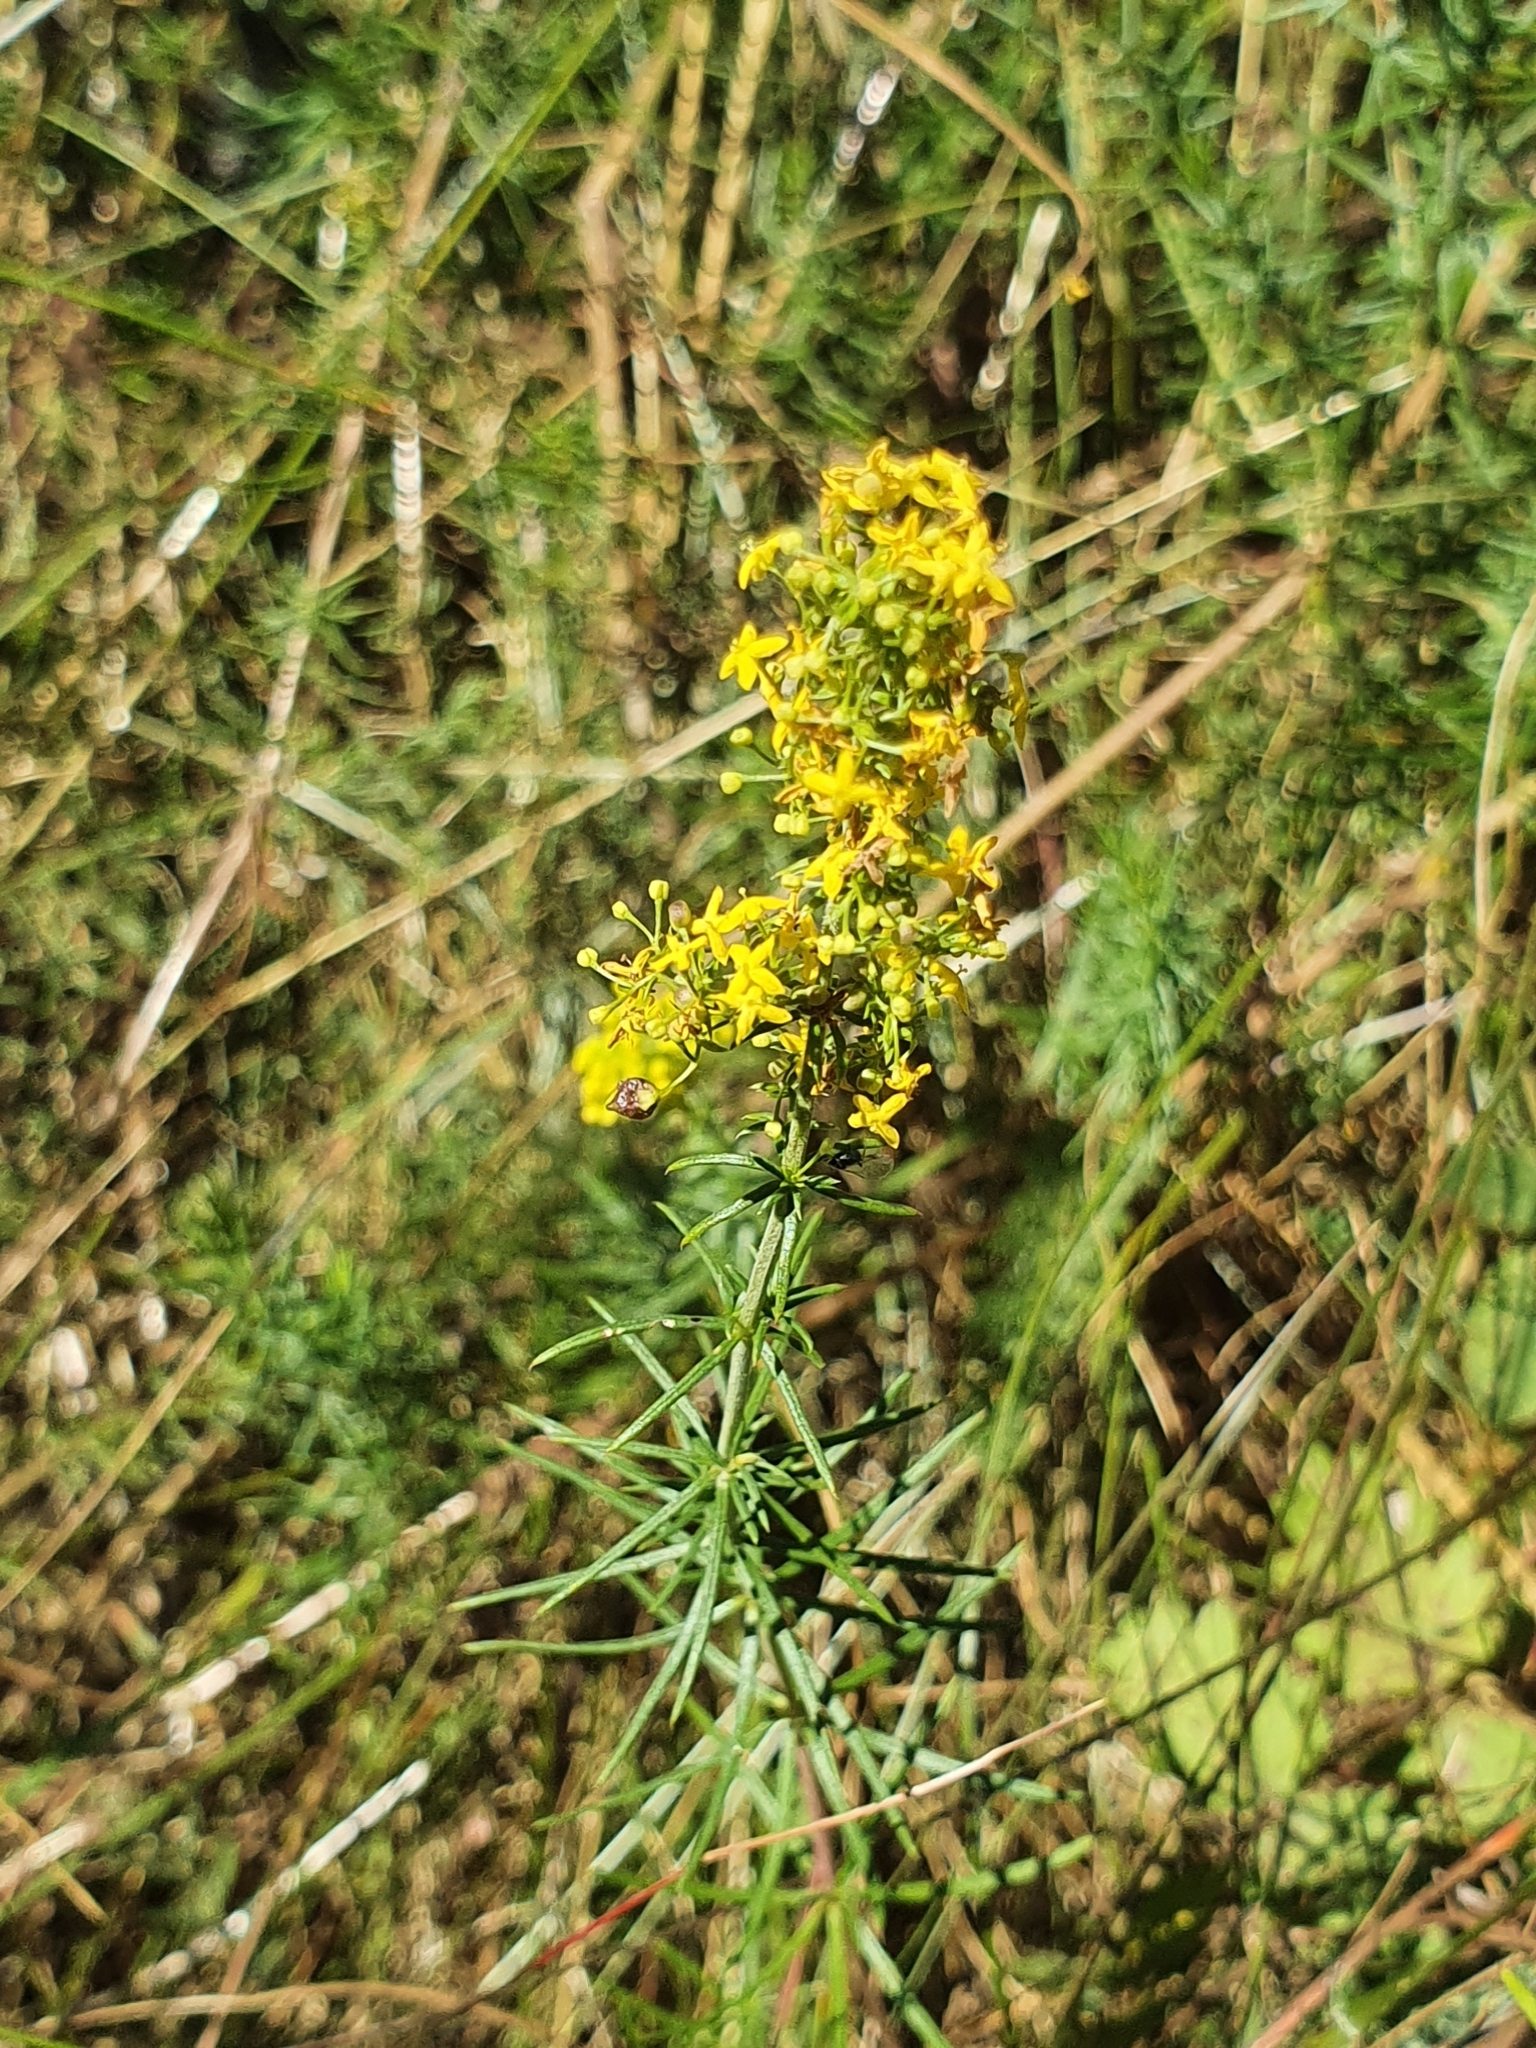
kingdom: Plantae
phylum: Tracheophyta
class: Magnoliopsida
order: Gentianales
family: Rubiaceae
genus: Galium
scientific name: Galium verum
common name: Lady's bedstraw
